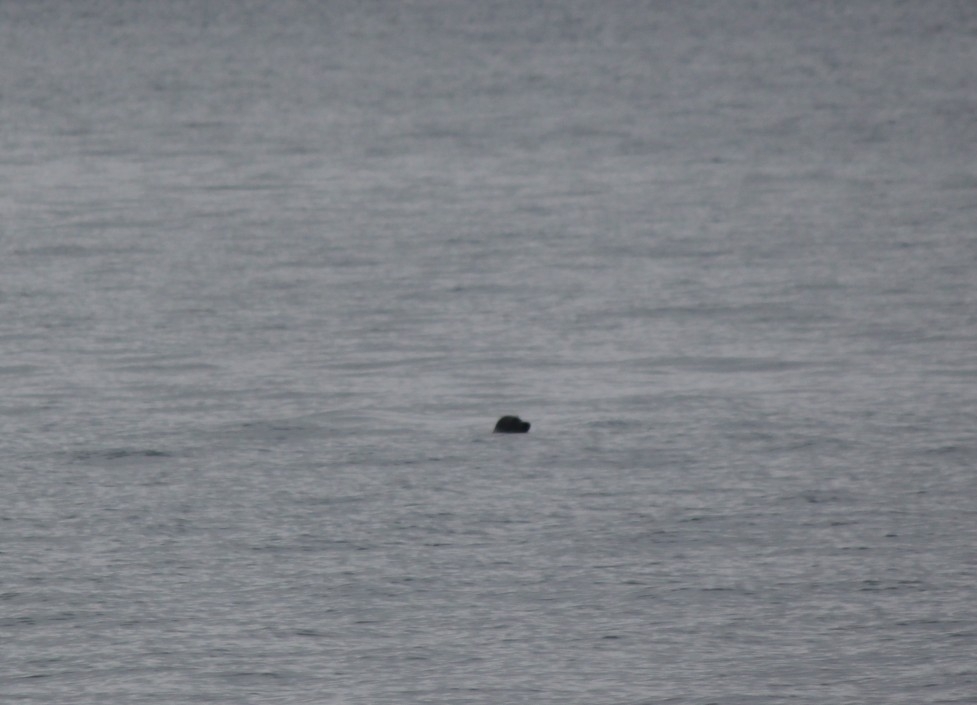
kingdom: Animalia
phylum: Chordata
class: Mammalia
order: Carnivora
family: Phocidae
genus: Pusa
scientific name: Pusa sibirica
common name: Baikal seal
